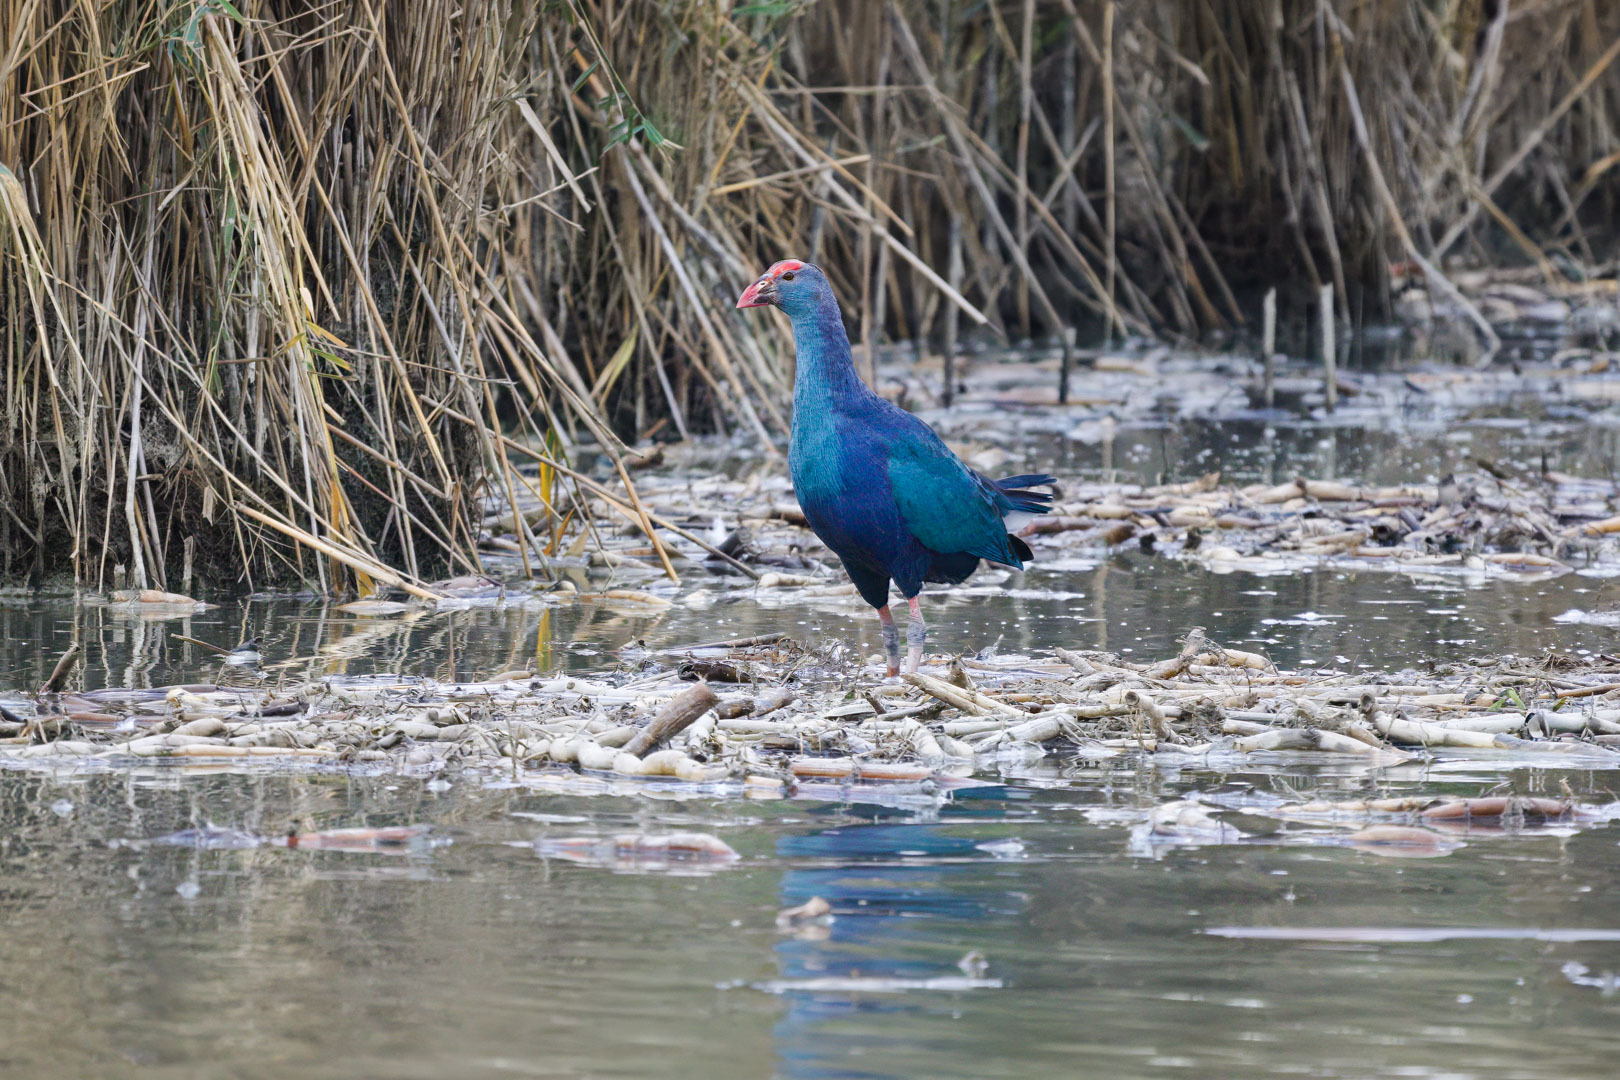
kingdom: Animalia
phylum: Chordata
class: Aves
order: Gruiformes
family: Rallidae
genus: Porphyrio
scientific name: Porphyrio porphyrio
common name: Purple swamphen
